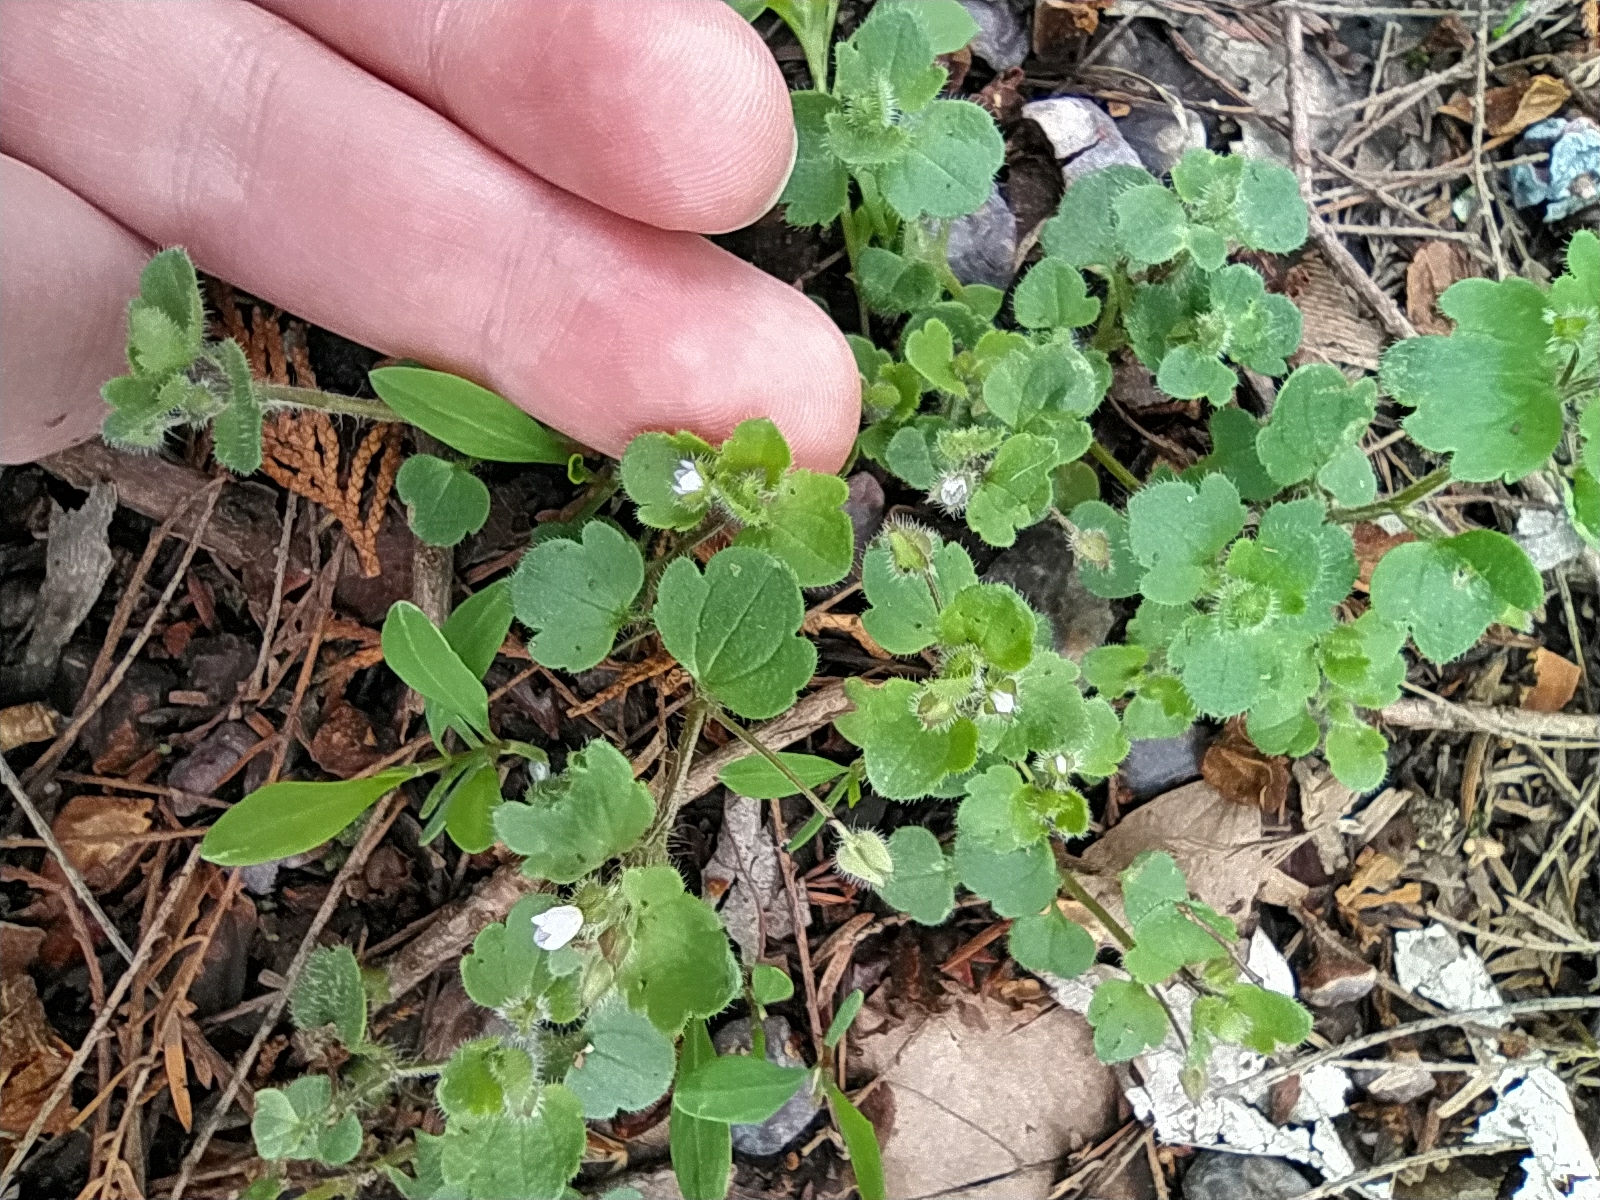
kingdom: Plantae
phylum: Tracheophyta
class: Magnoliopsida
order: Lamiales
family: Plantaginaceae
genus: Veronica
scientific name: Veronica sublobata
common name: False ivy-leaved speedwell
